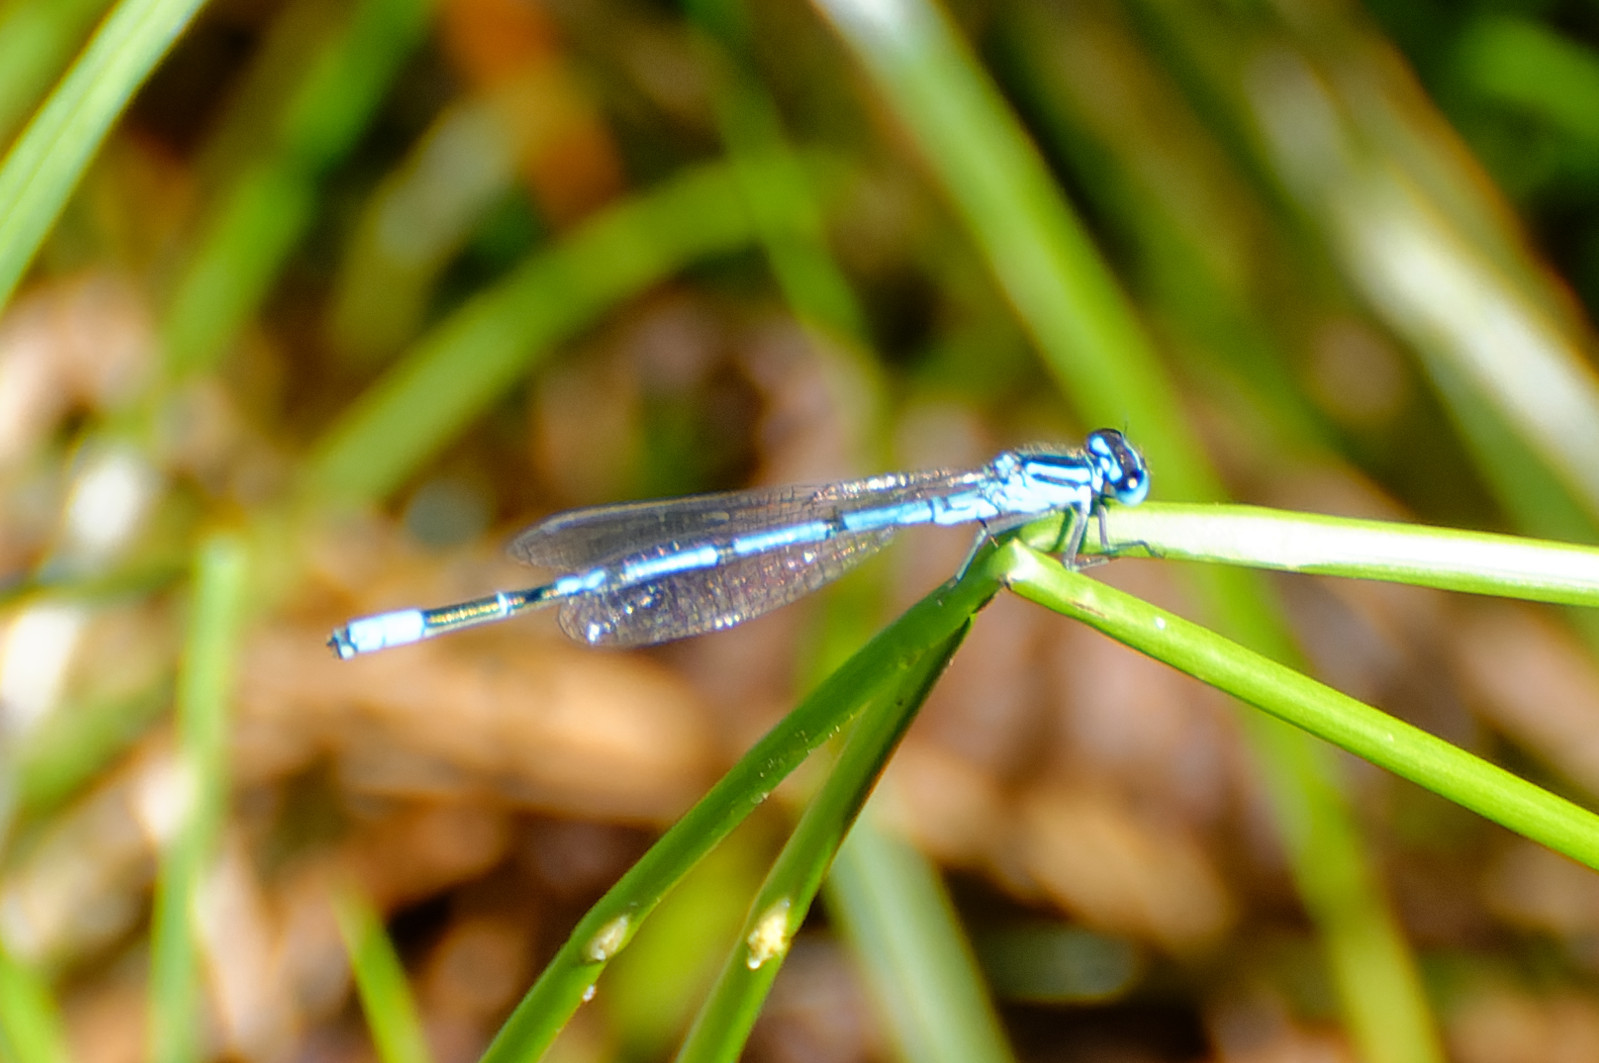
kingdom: Animalia
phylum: Arthropoda
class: Insecta
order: Odonata
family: Coenagrionidae
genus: Coenagrion
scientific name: Coenagrion puella
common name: Azure damselfly
